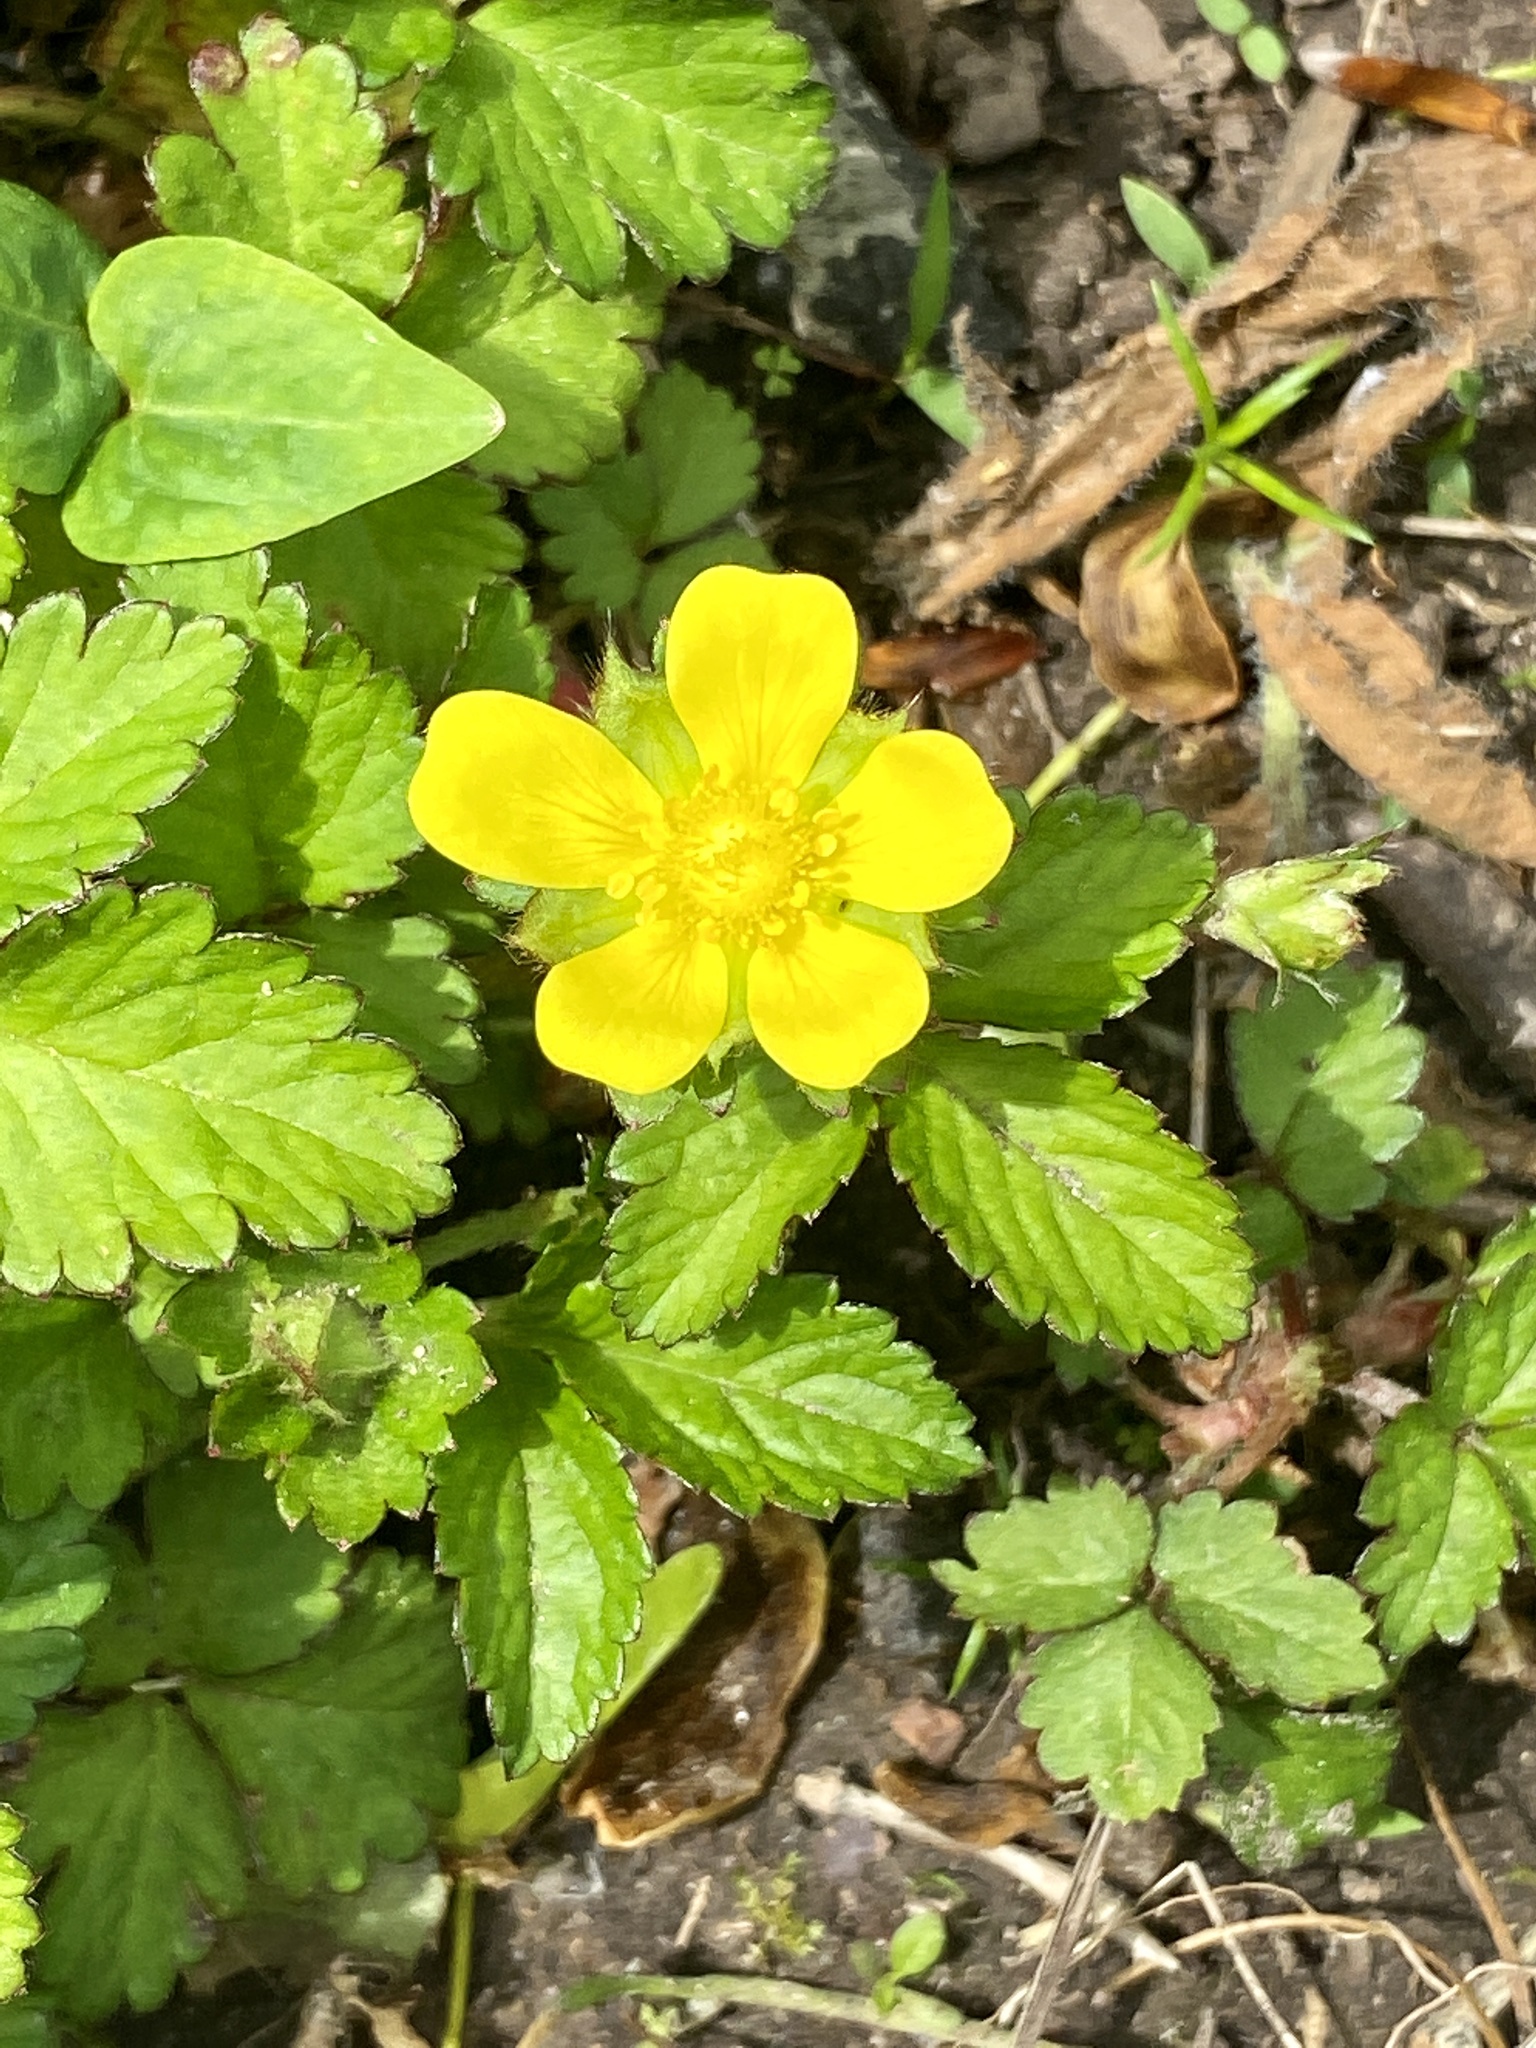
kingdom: Plantae
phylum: Tracheophyta
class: Magnoliopsida
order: Rosales
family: Rosaceae
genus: Potentilla
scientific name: Potentilla indica
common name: Yellow-flowered strawberry
